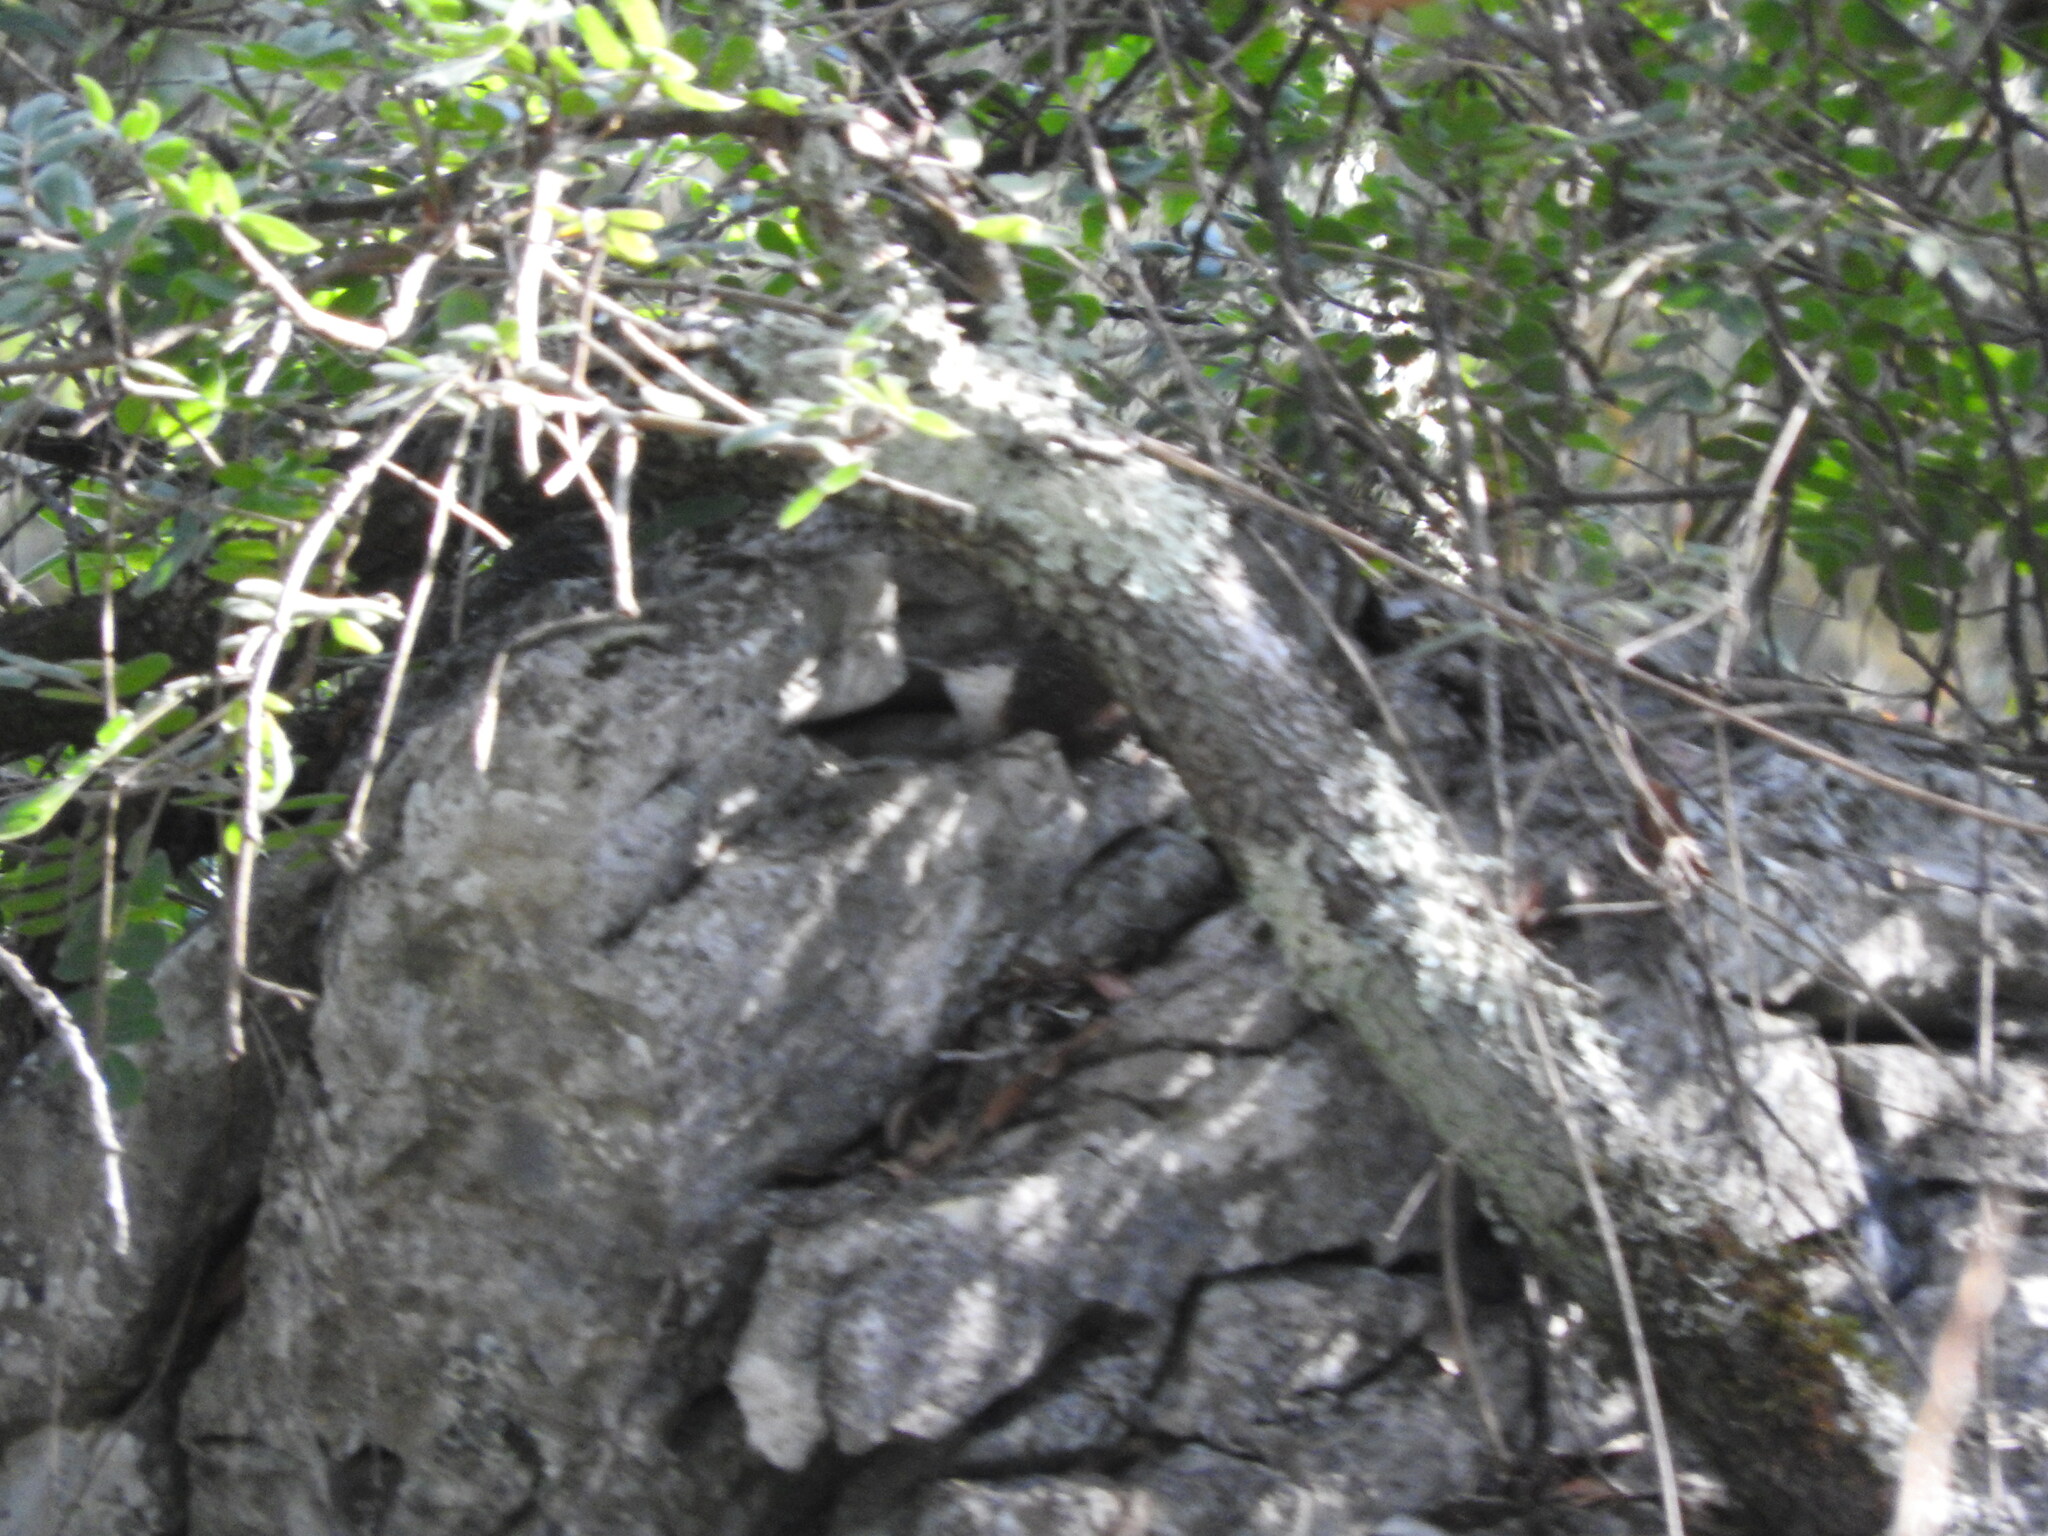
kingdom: Animalia
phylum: Chordata
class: Aves
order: Passeriformes
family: Troglodytidae
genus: Catherpes
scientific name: Catherpes mexicanus
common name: Canyon wren
